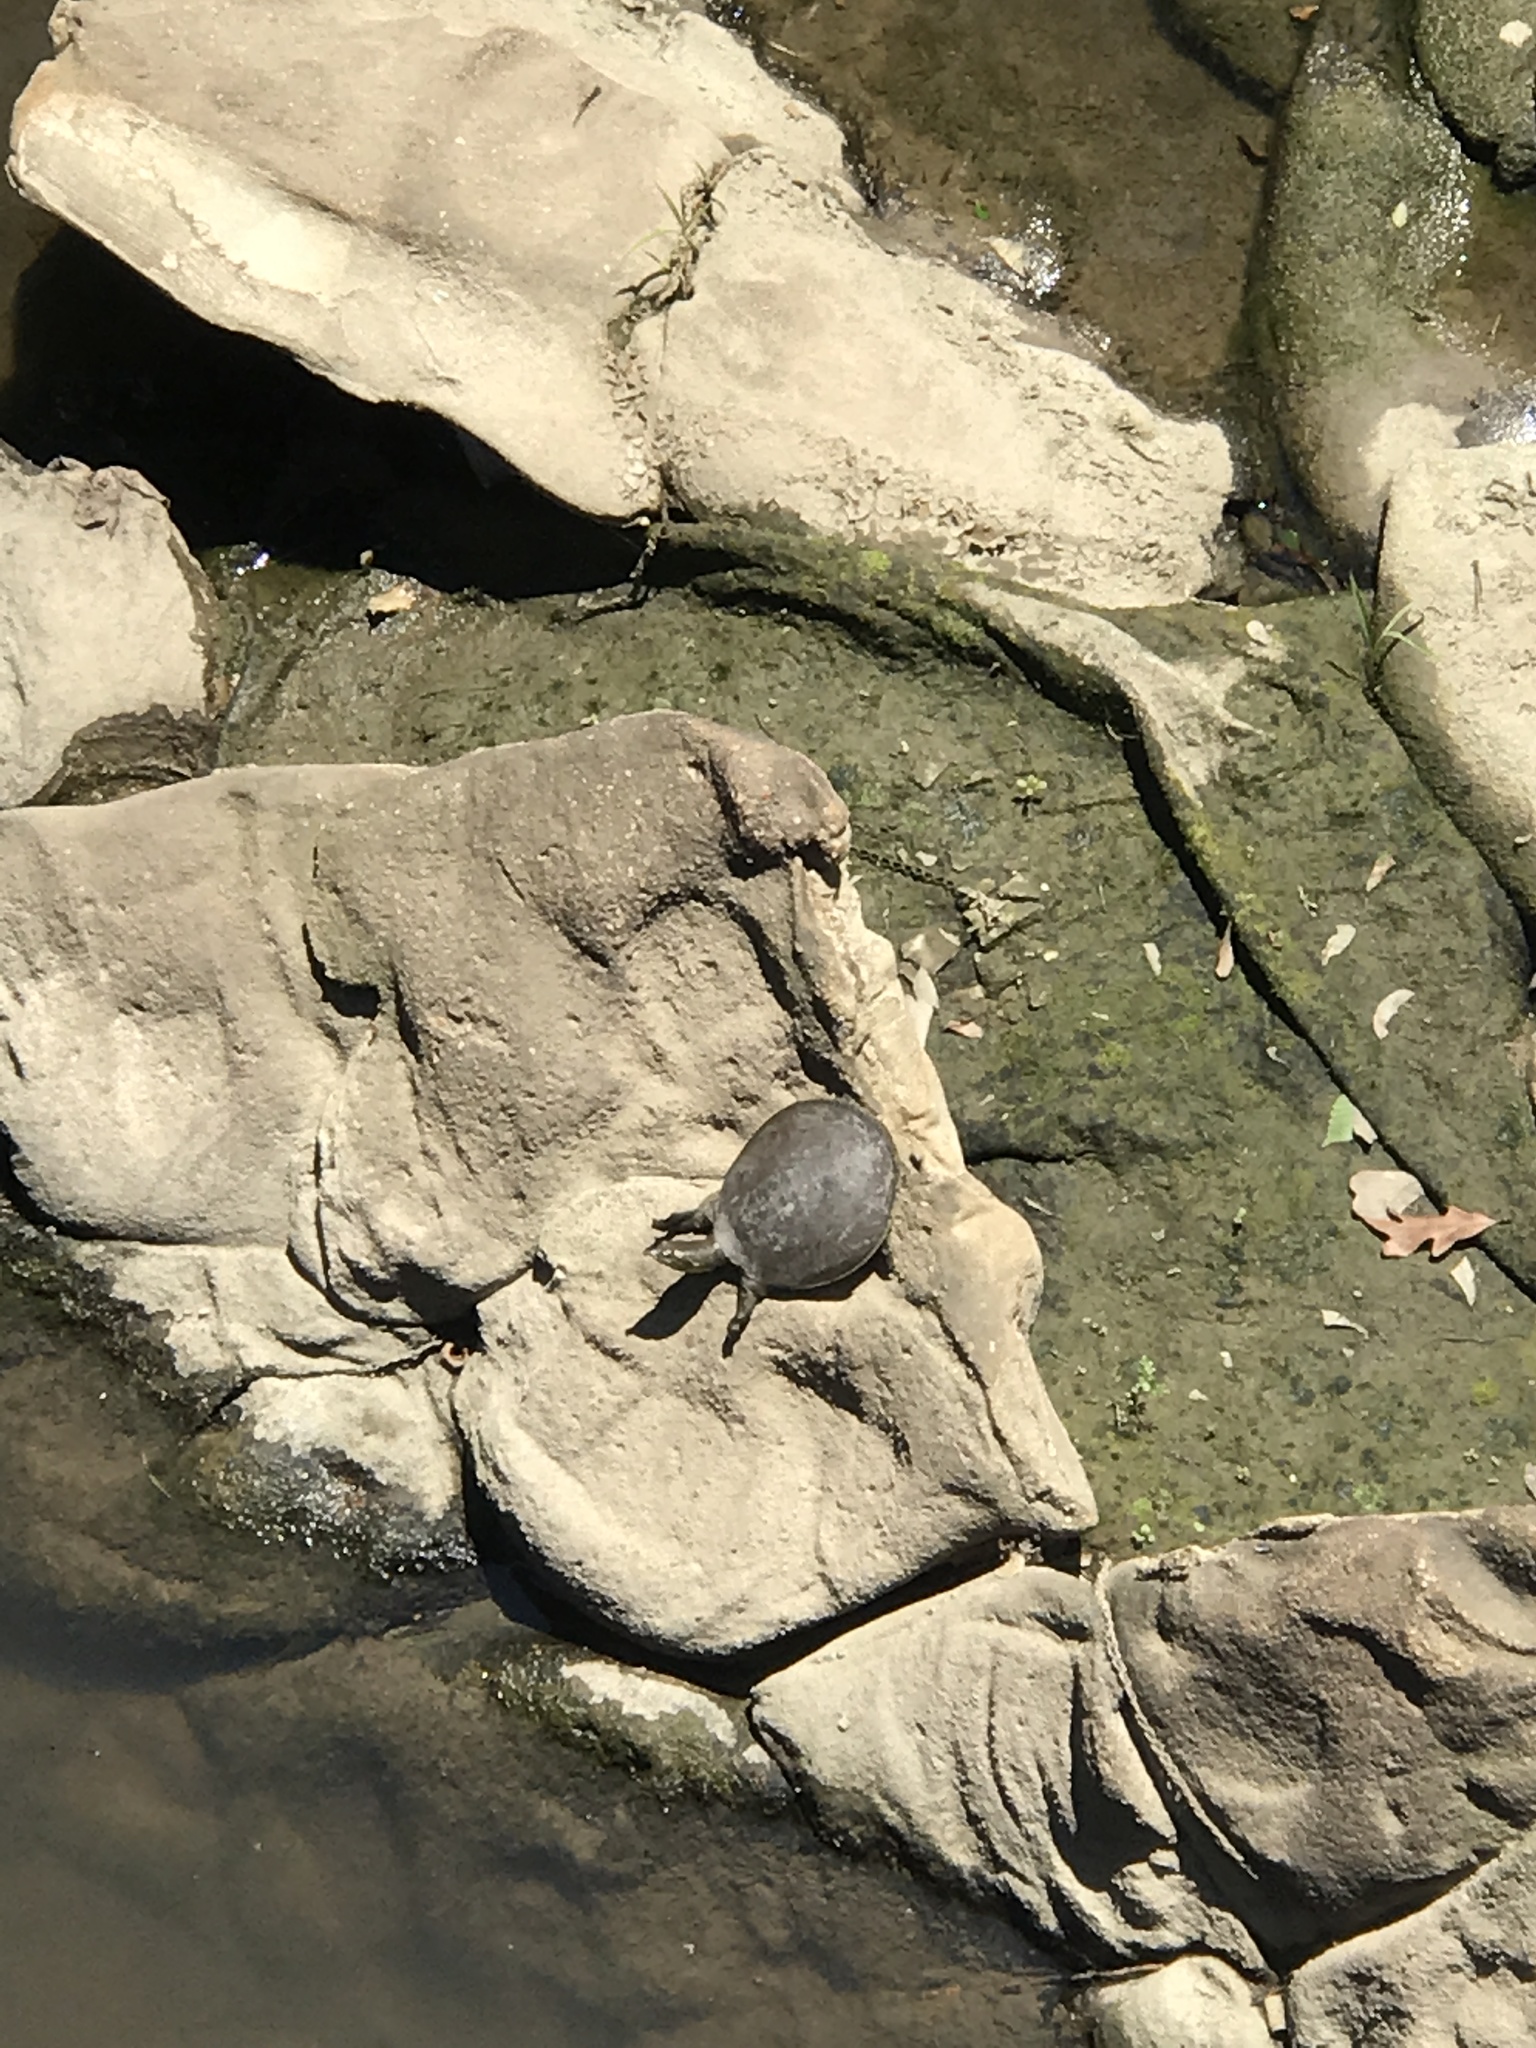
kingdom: Animalia
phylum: Chordata
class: Testudines
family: Trionychidae
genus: Apalone
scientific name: Apalone spinifera
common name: Spiny softshell turtle
